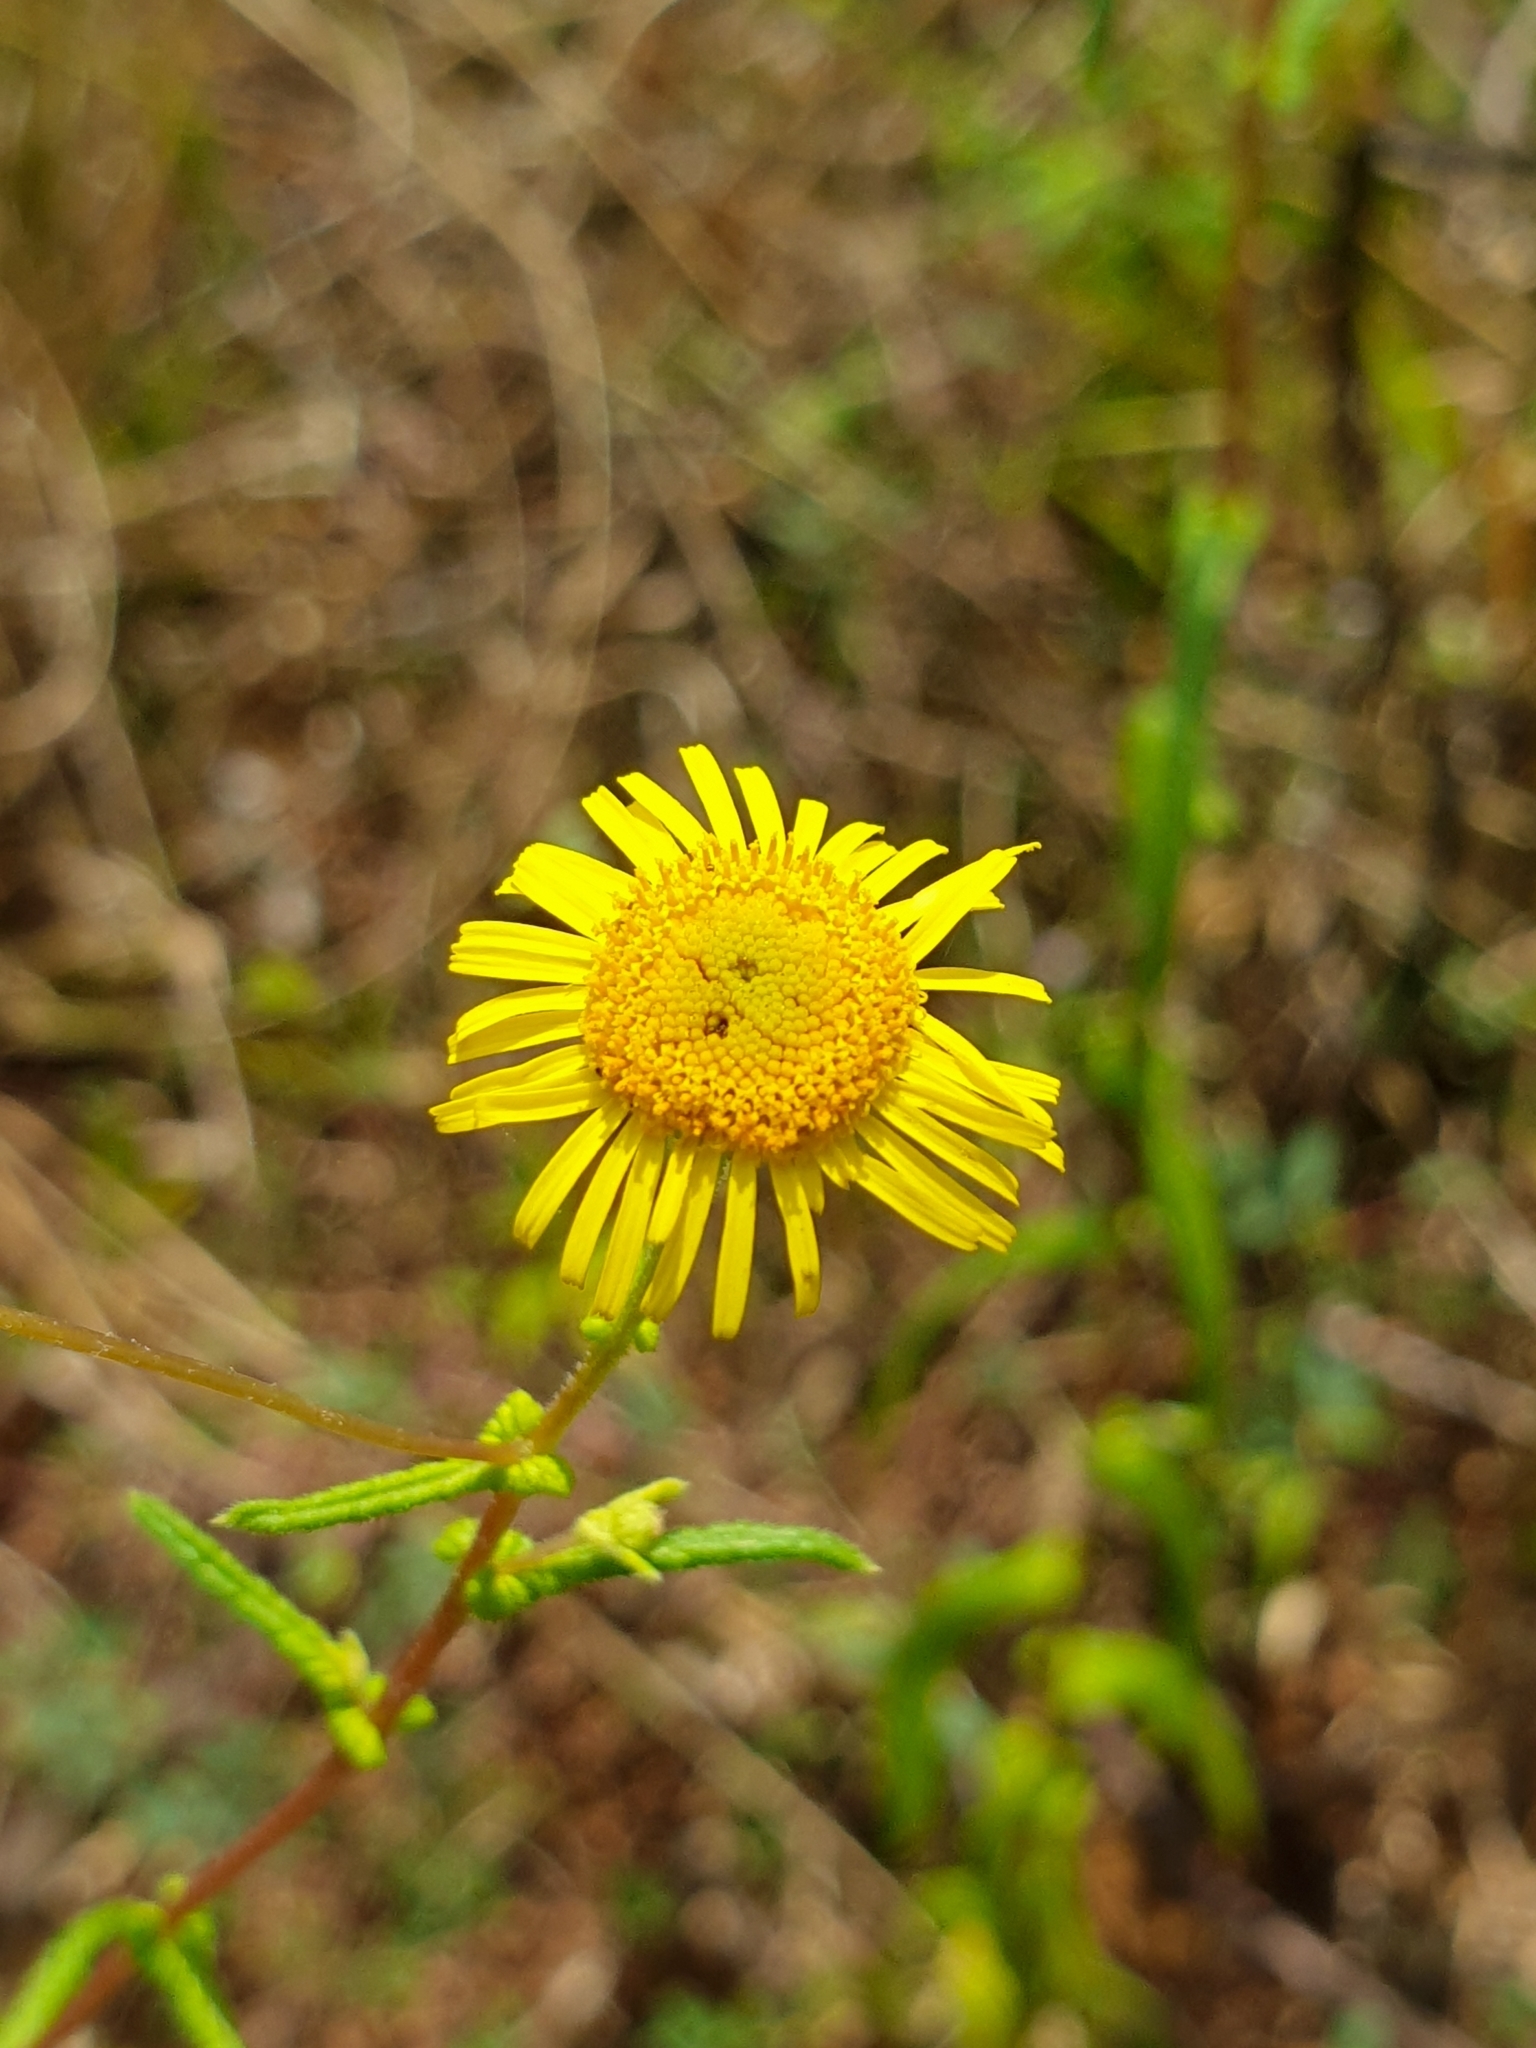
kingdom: Plantae
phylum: Tracheophyta
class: Magnoliopsida
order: Asterales
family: Asteraceae
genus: Vicoa
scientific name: Vicoa indica
